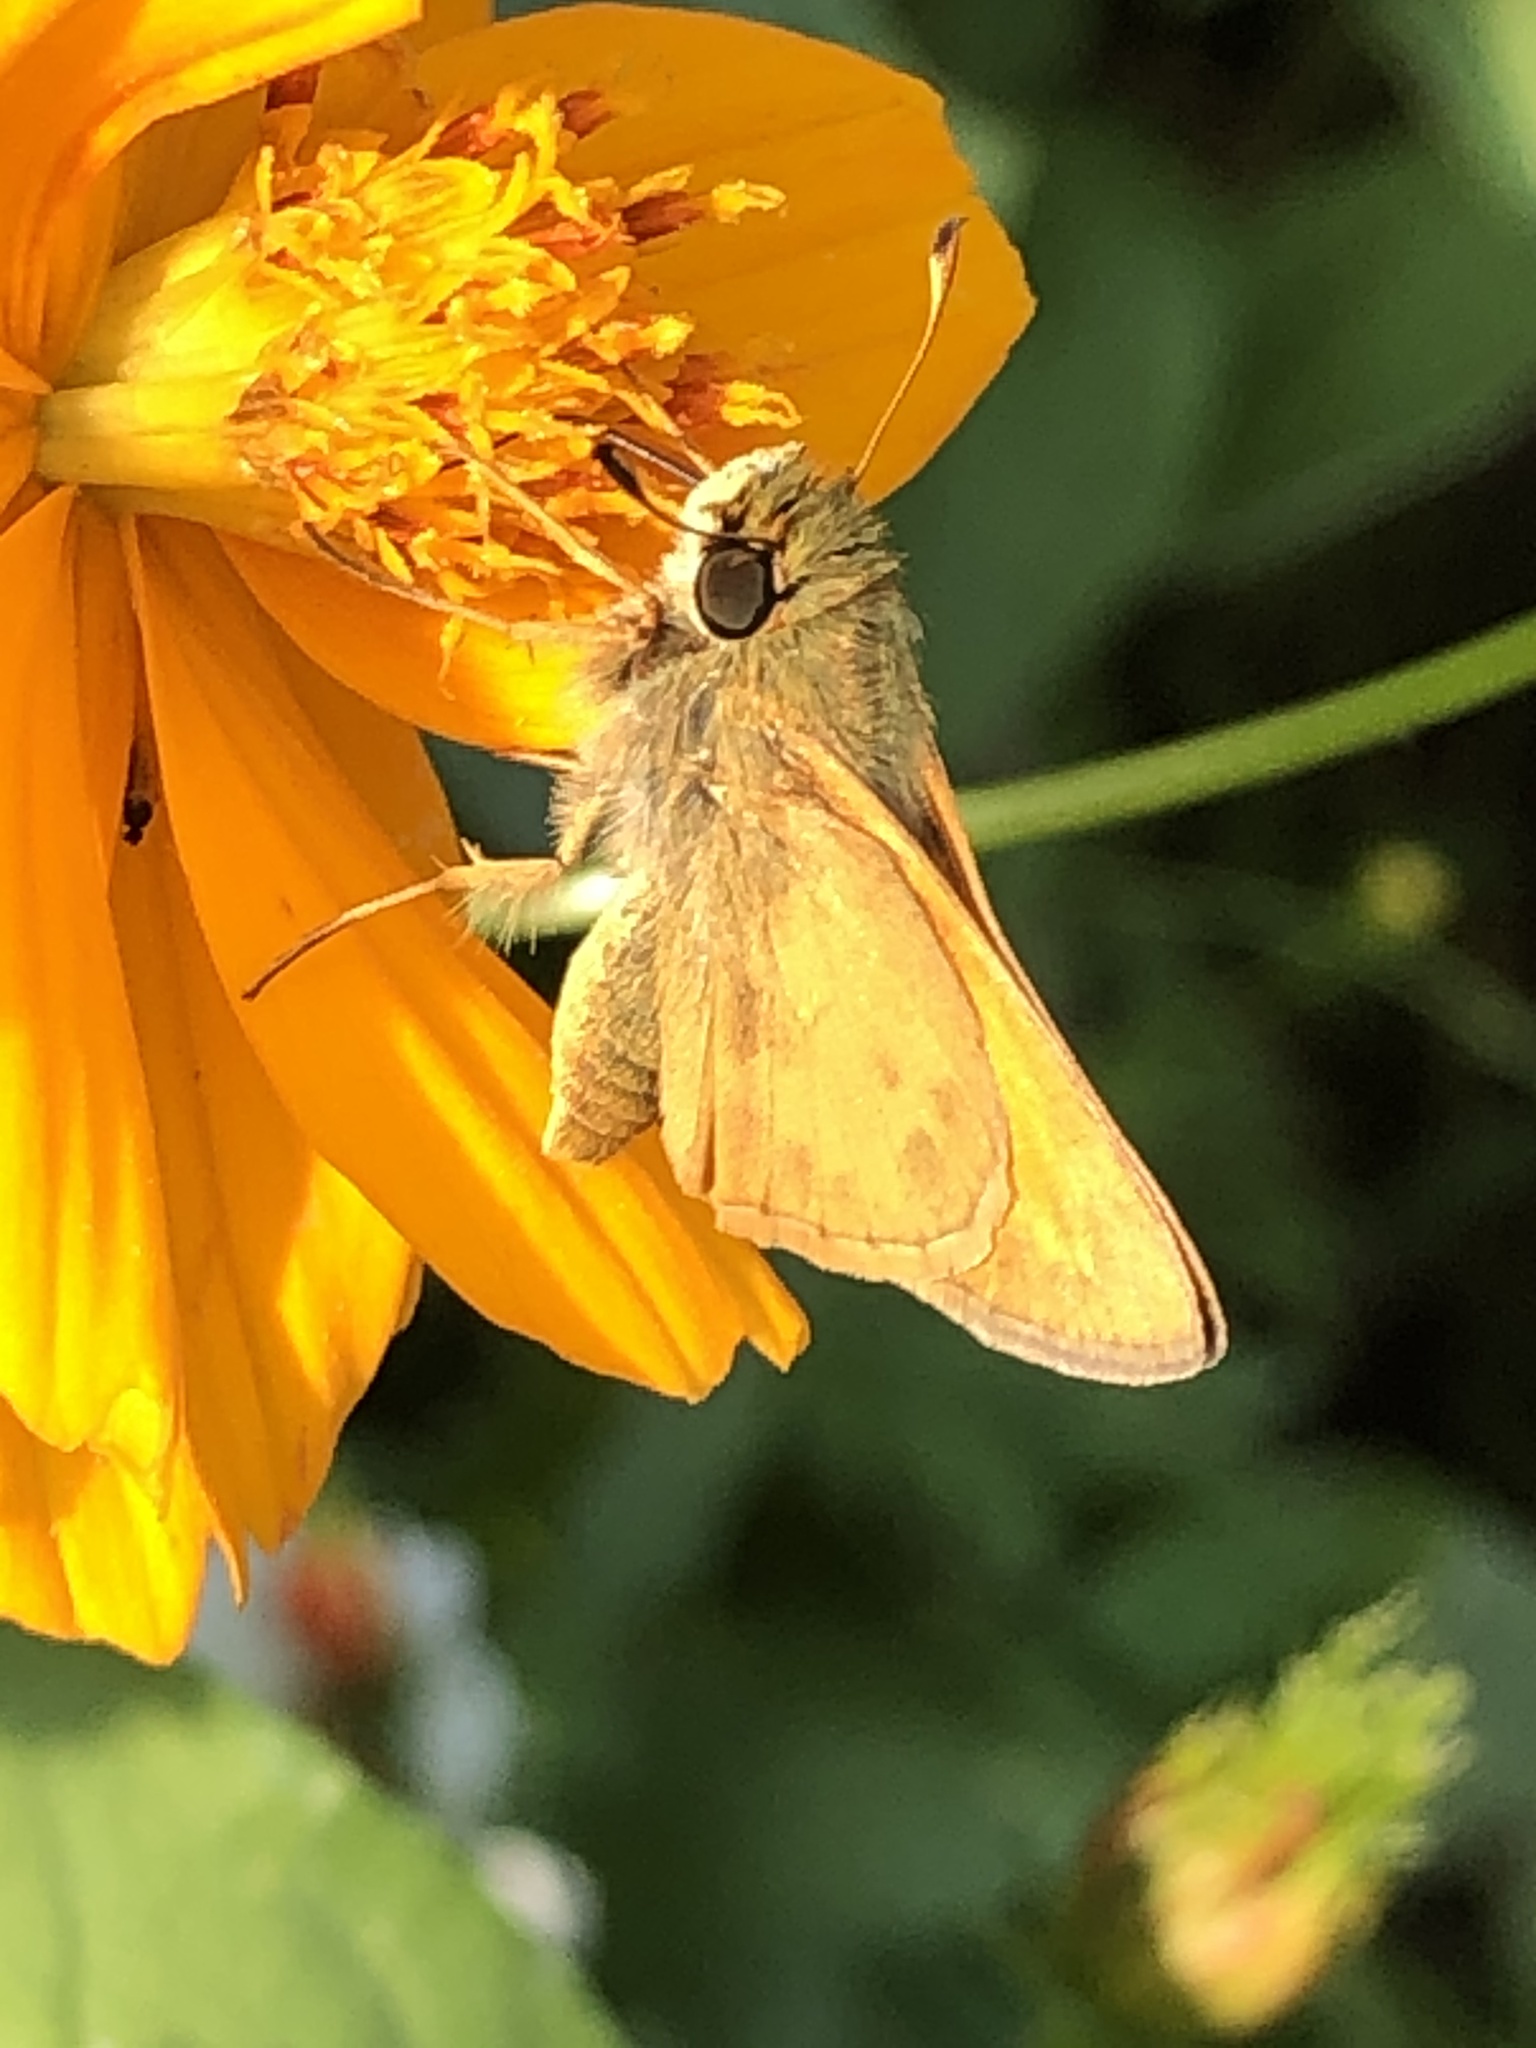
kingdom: Animalia
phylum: Arthropoda
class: Insecta
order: Lepidoptera
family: Hesperiidae
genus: Atalopedes
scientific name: Atalopedes
